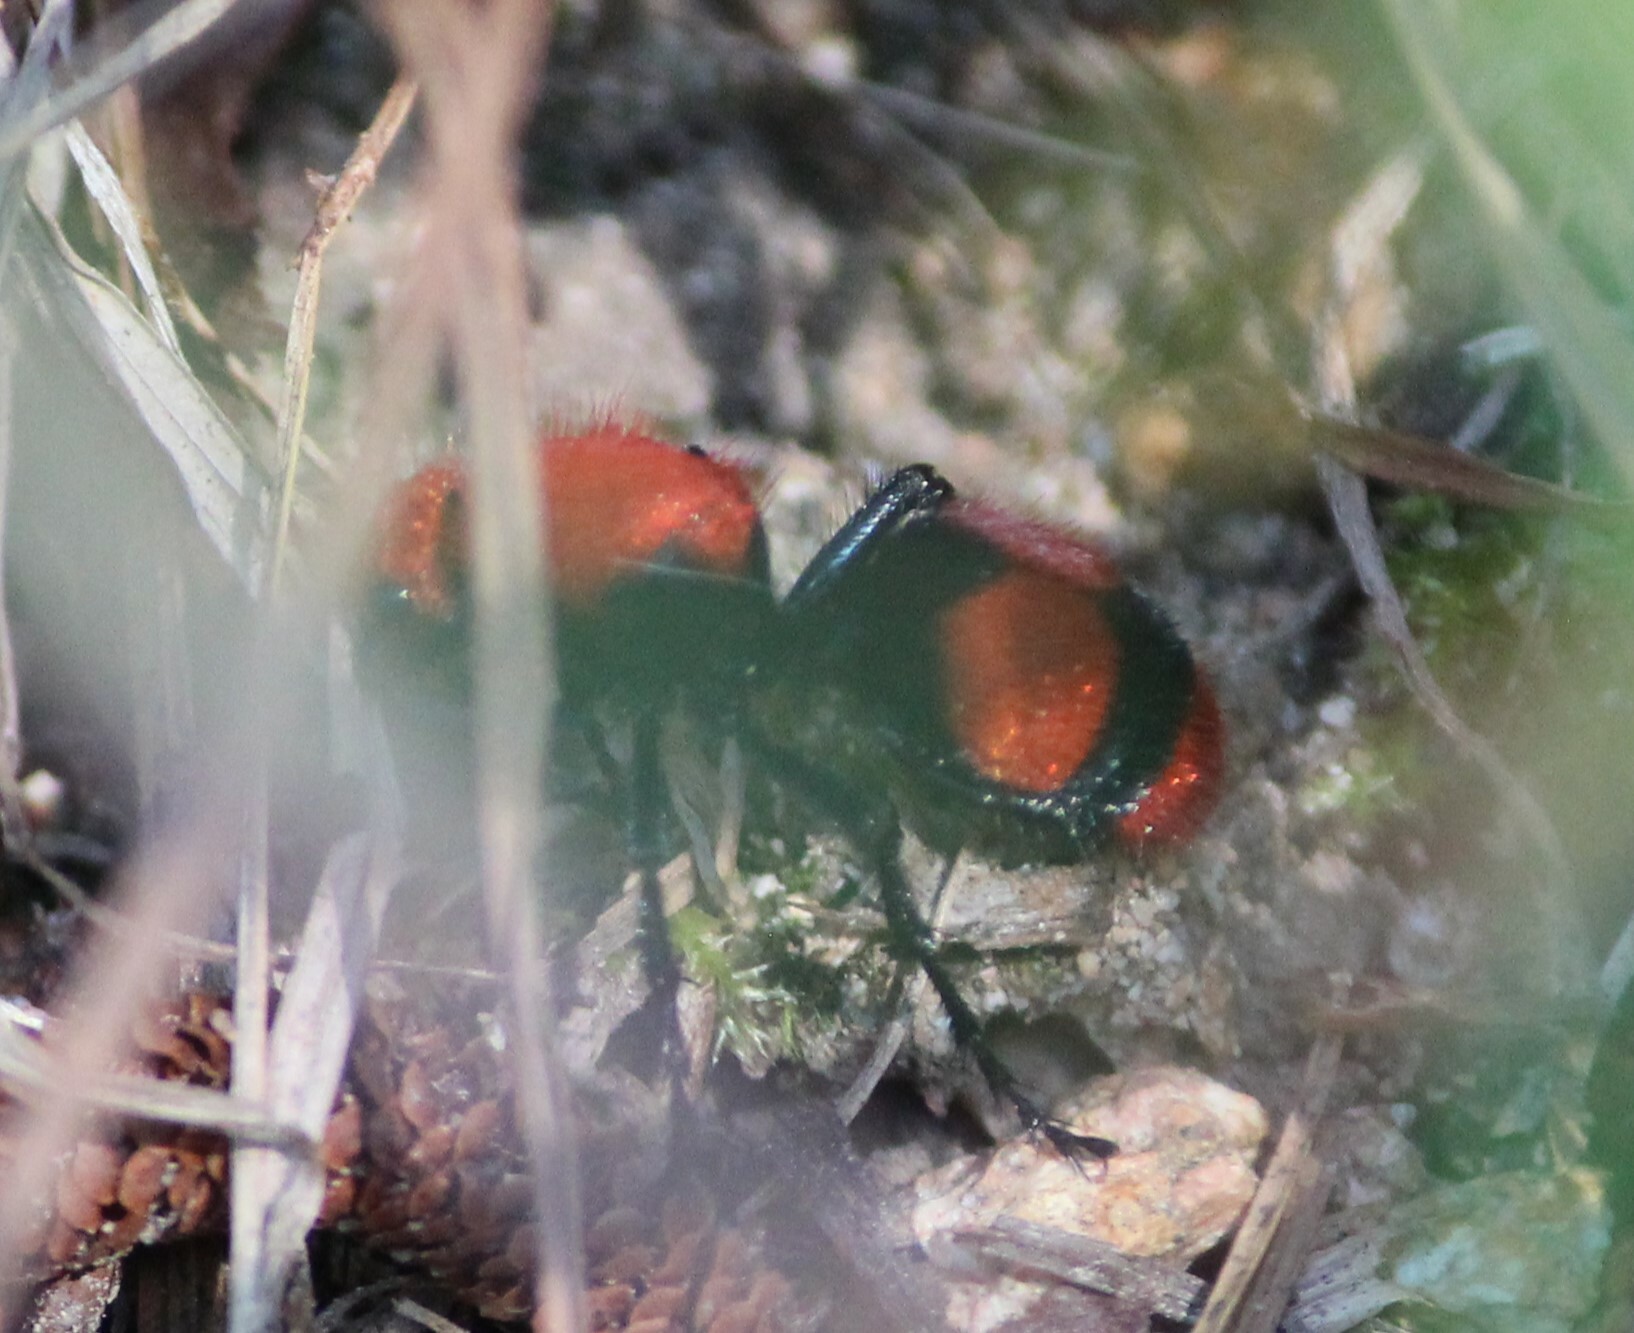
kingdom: Animalia
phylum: Arthropoda
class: Insecta
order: Hymenoptera
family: Mutillidae
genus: Dasymutilla
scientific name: Dasymutilla occidentalis
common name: Common eastern velvet ant
